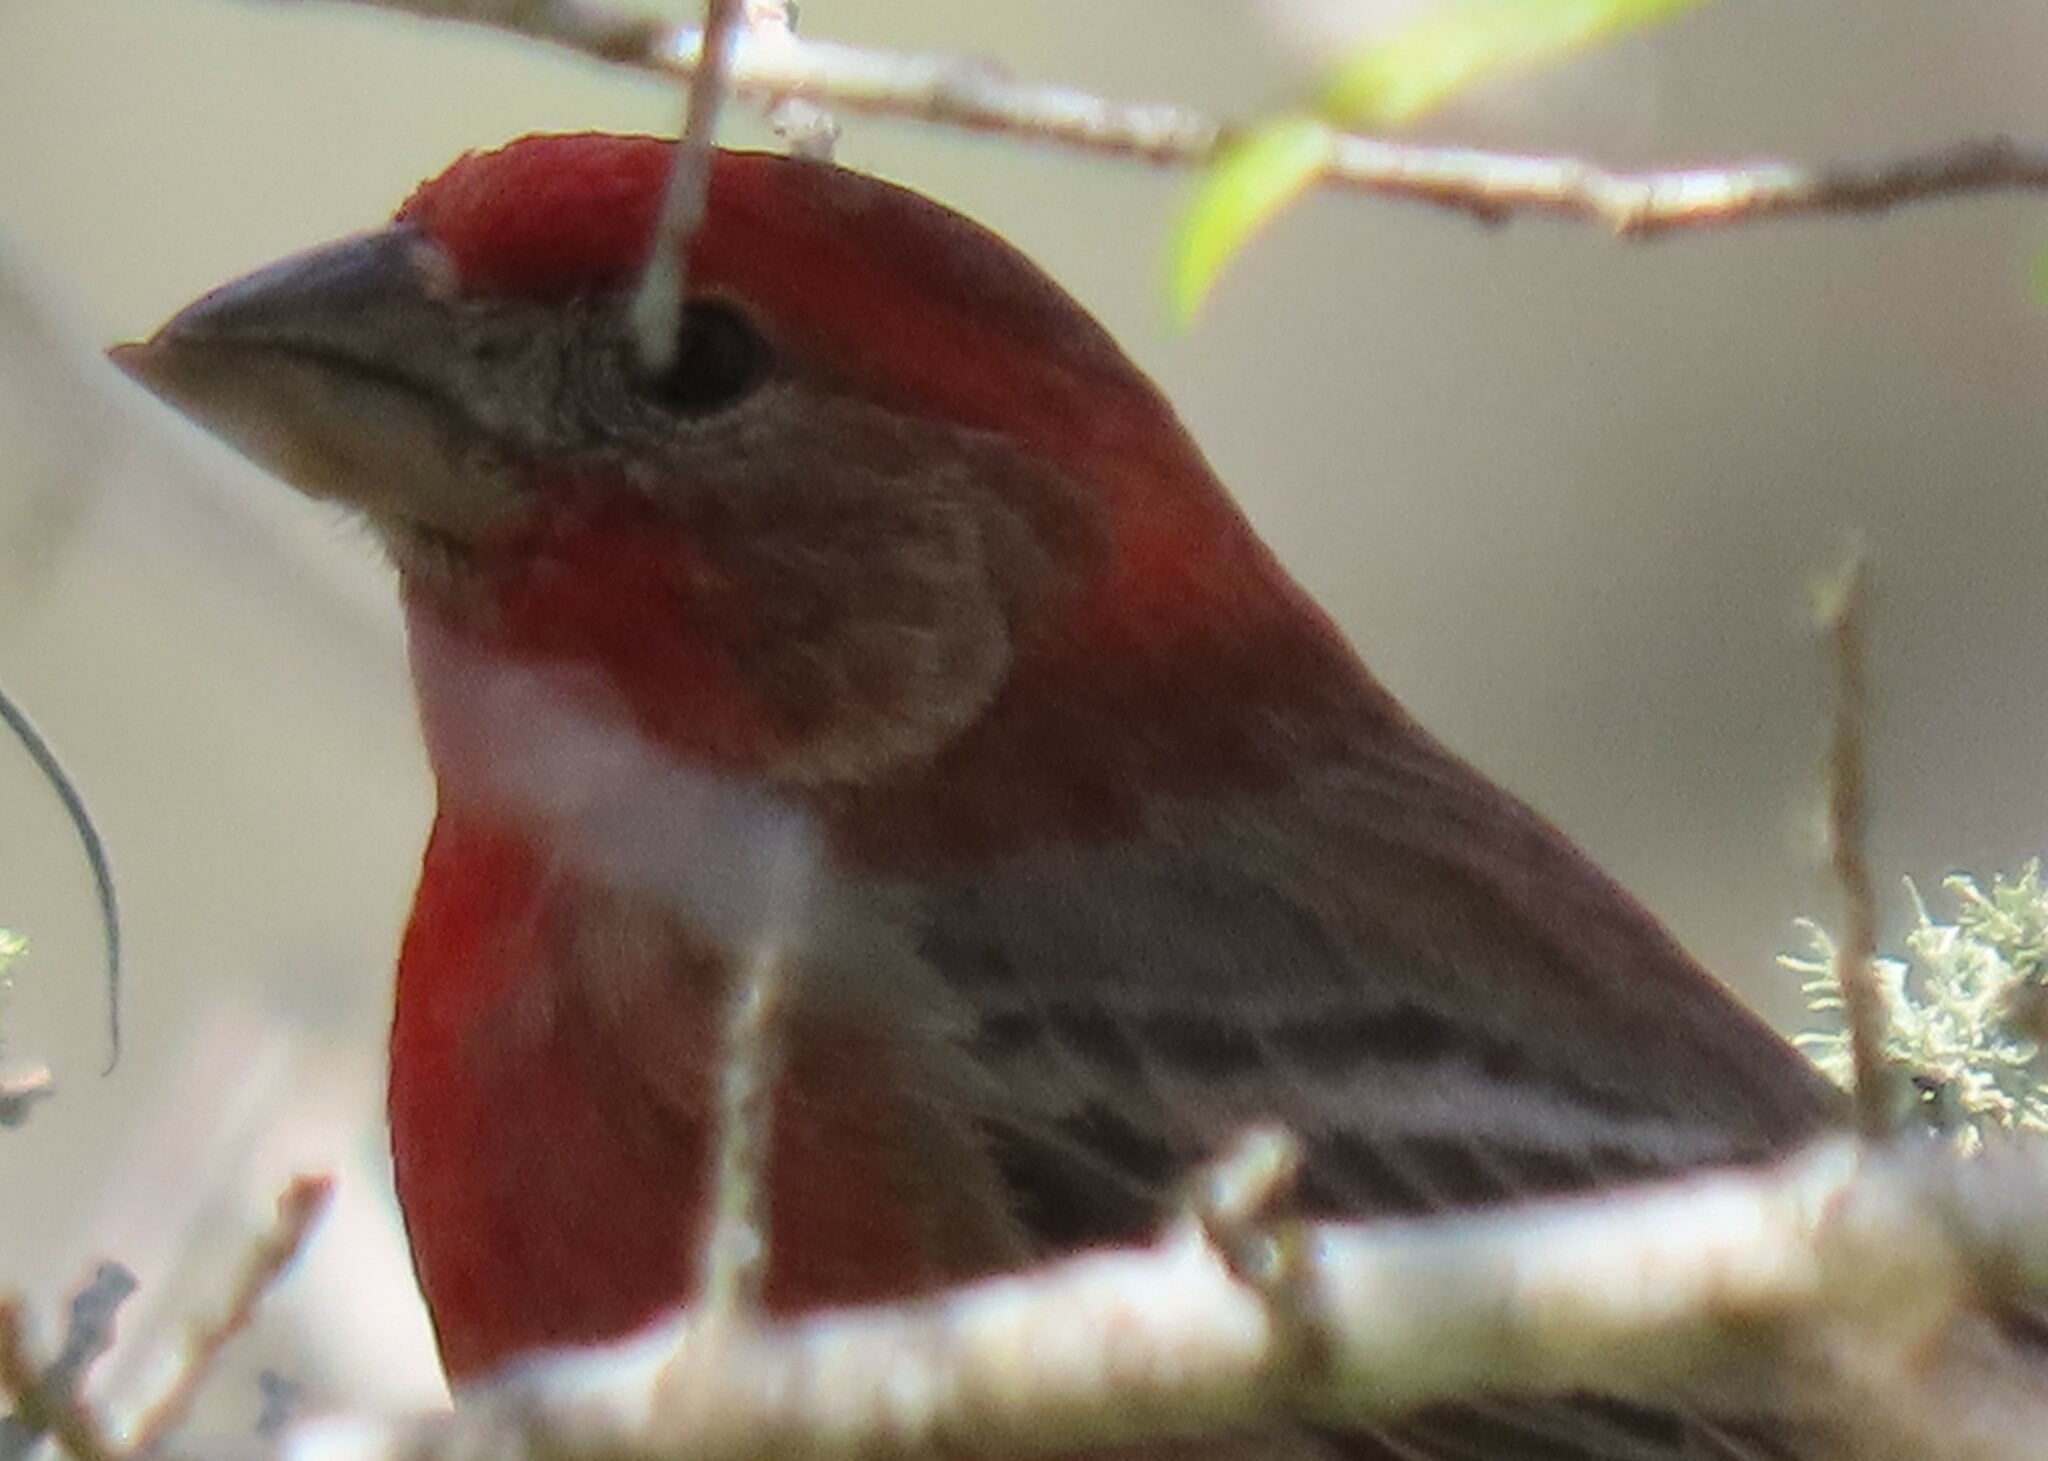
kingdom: Animalia
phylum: Chordata
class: Aves
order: Passeriformes
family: Fringillidae
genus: Haemorhous
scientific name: Haemorhous mexicanus
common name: House finch
